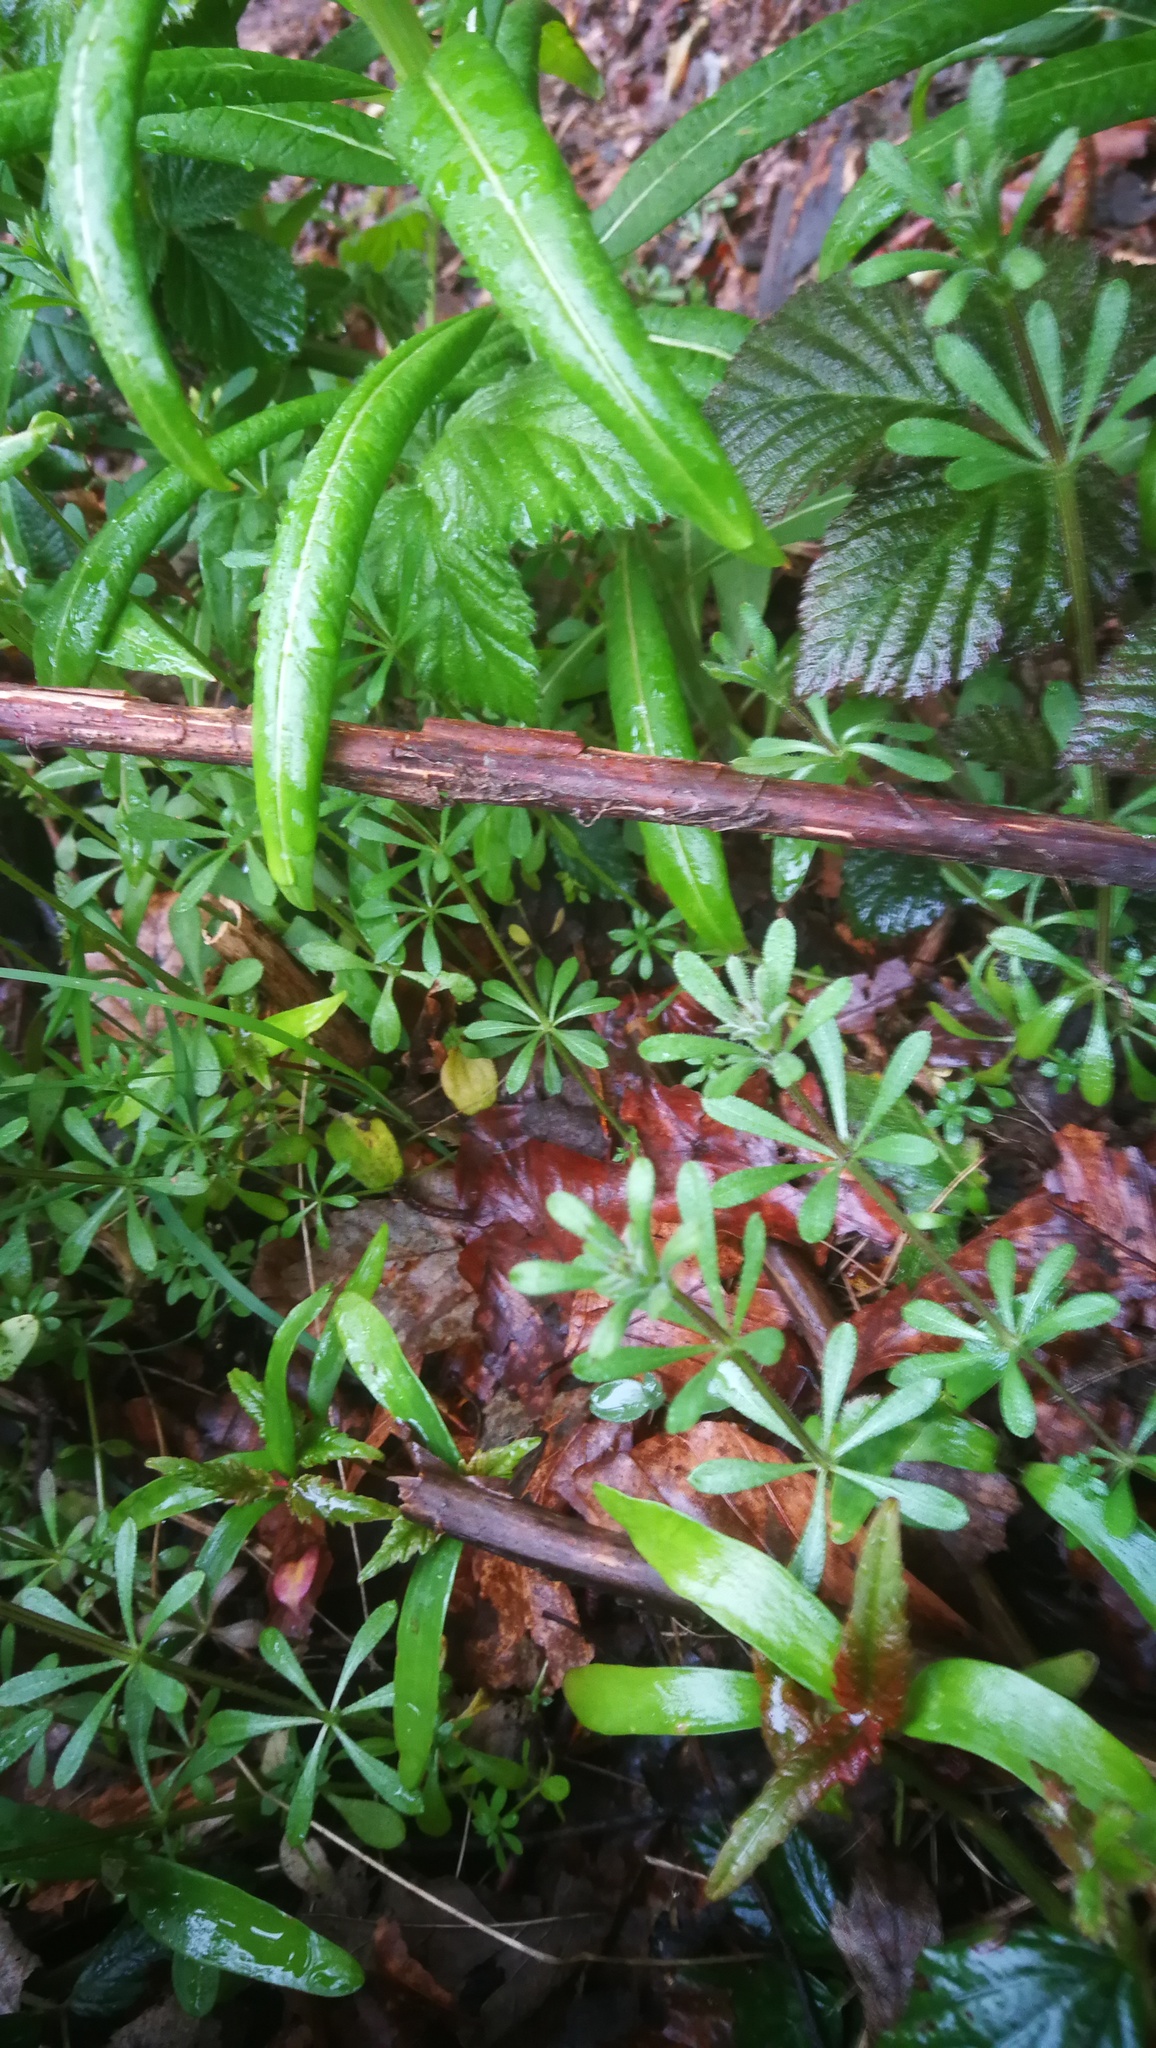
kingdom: Plantae
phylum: Tracheophyta
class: Magnoliopsida
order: Gentianales
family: Rubiaceae
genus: Galium
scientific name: Galium aparine
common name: Cleavers
